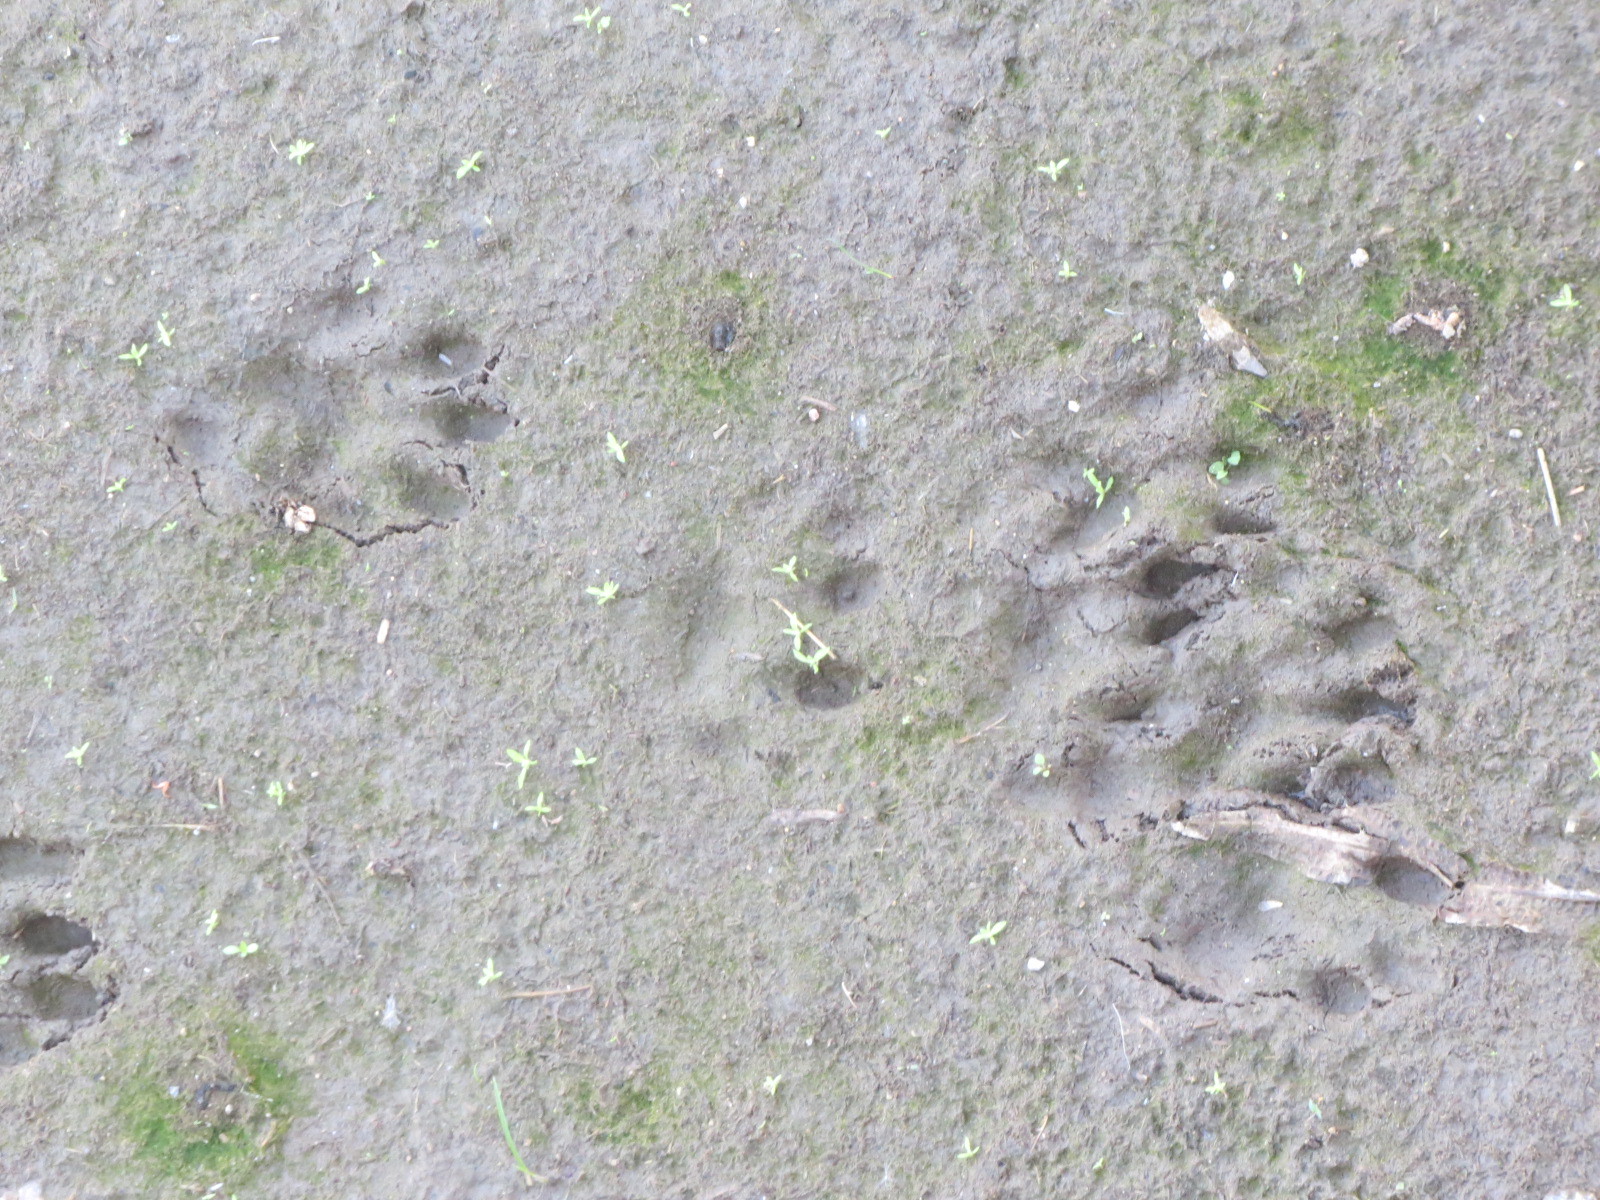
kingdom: Animalia
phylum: Chordata
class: Mammalia
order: Carnivora
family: Mustelidae
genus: Lontra
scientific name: Lontra canadensis
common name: North american river otter
